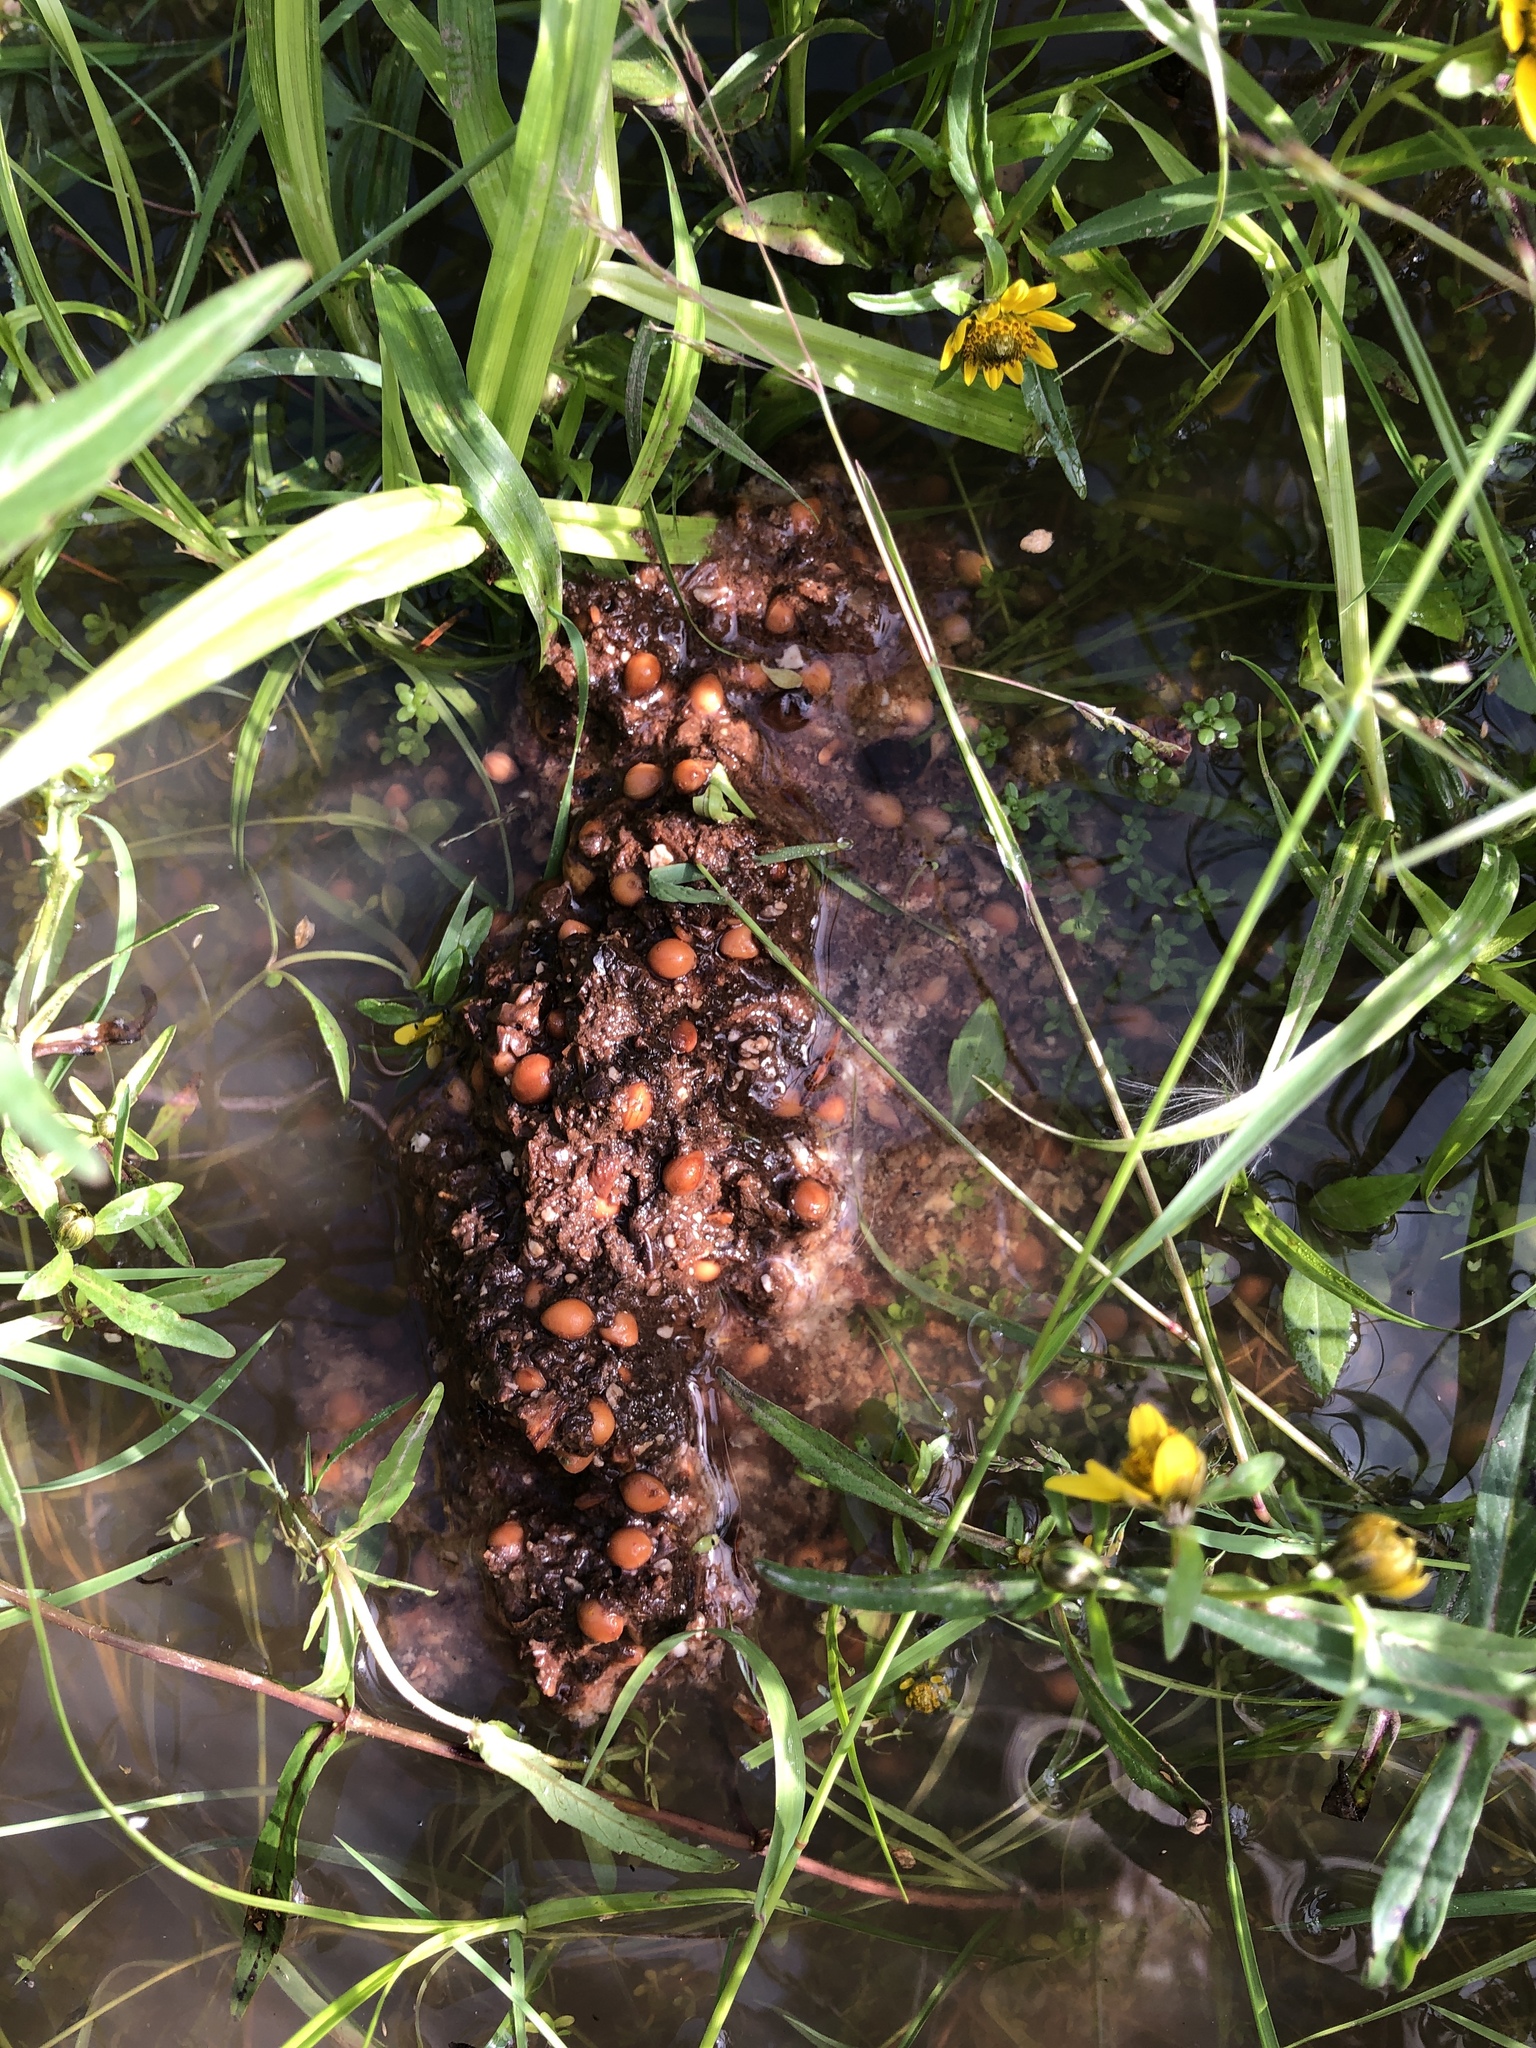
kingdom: Animalia
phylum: Chordata
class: Mammalia
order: Carnivora
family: Ursidae
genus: Ursus
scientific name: Ursus americanus
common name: American black bear
